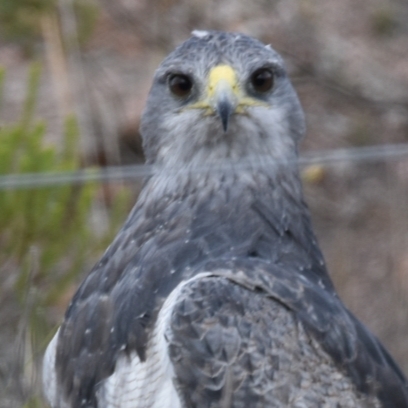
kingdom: Animalia
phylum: Chordata
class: Aves
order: Accipitriformes
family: Accipitridae
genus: Geranoaetus
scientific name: Geranoaetus melanoleucus
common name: Black-chested buzzard-eagle
